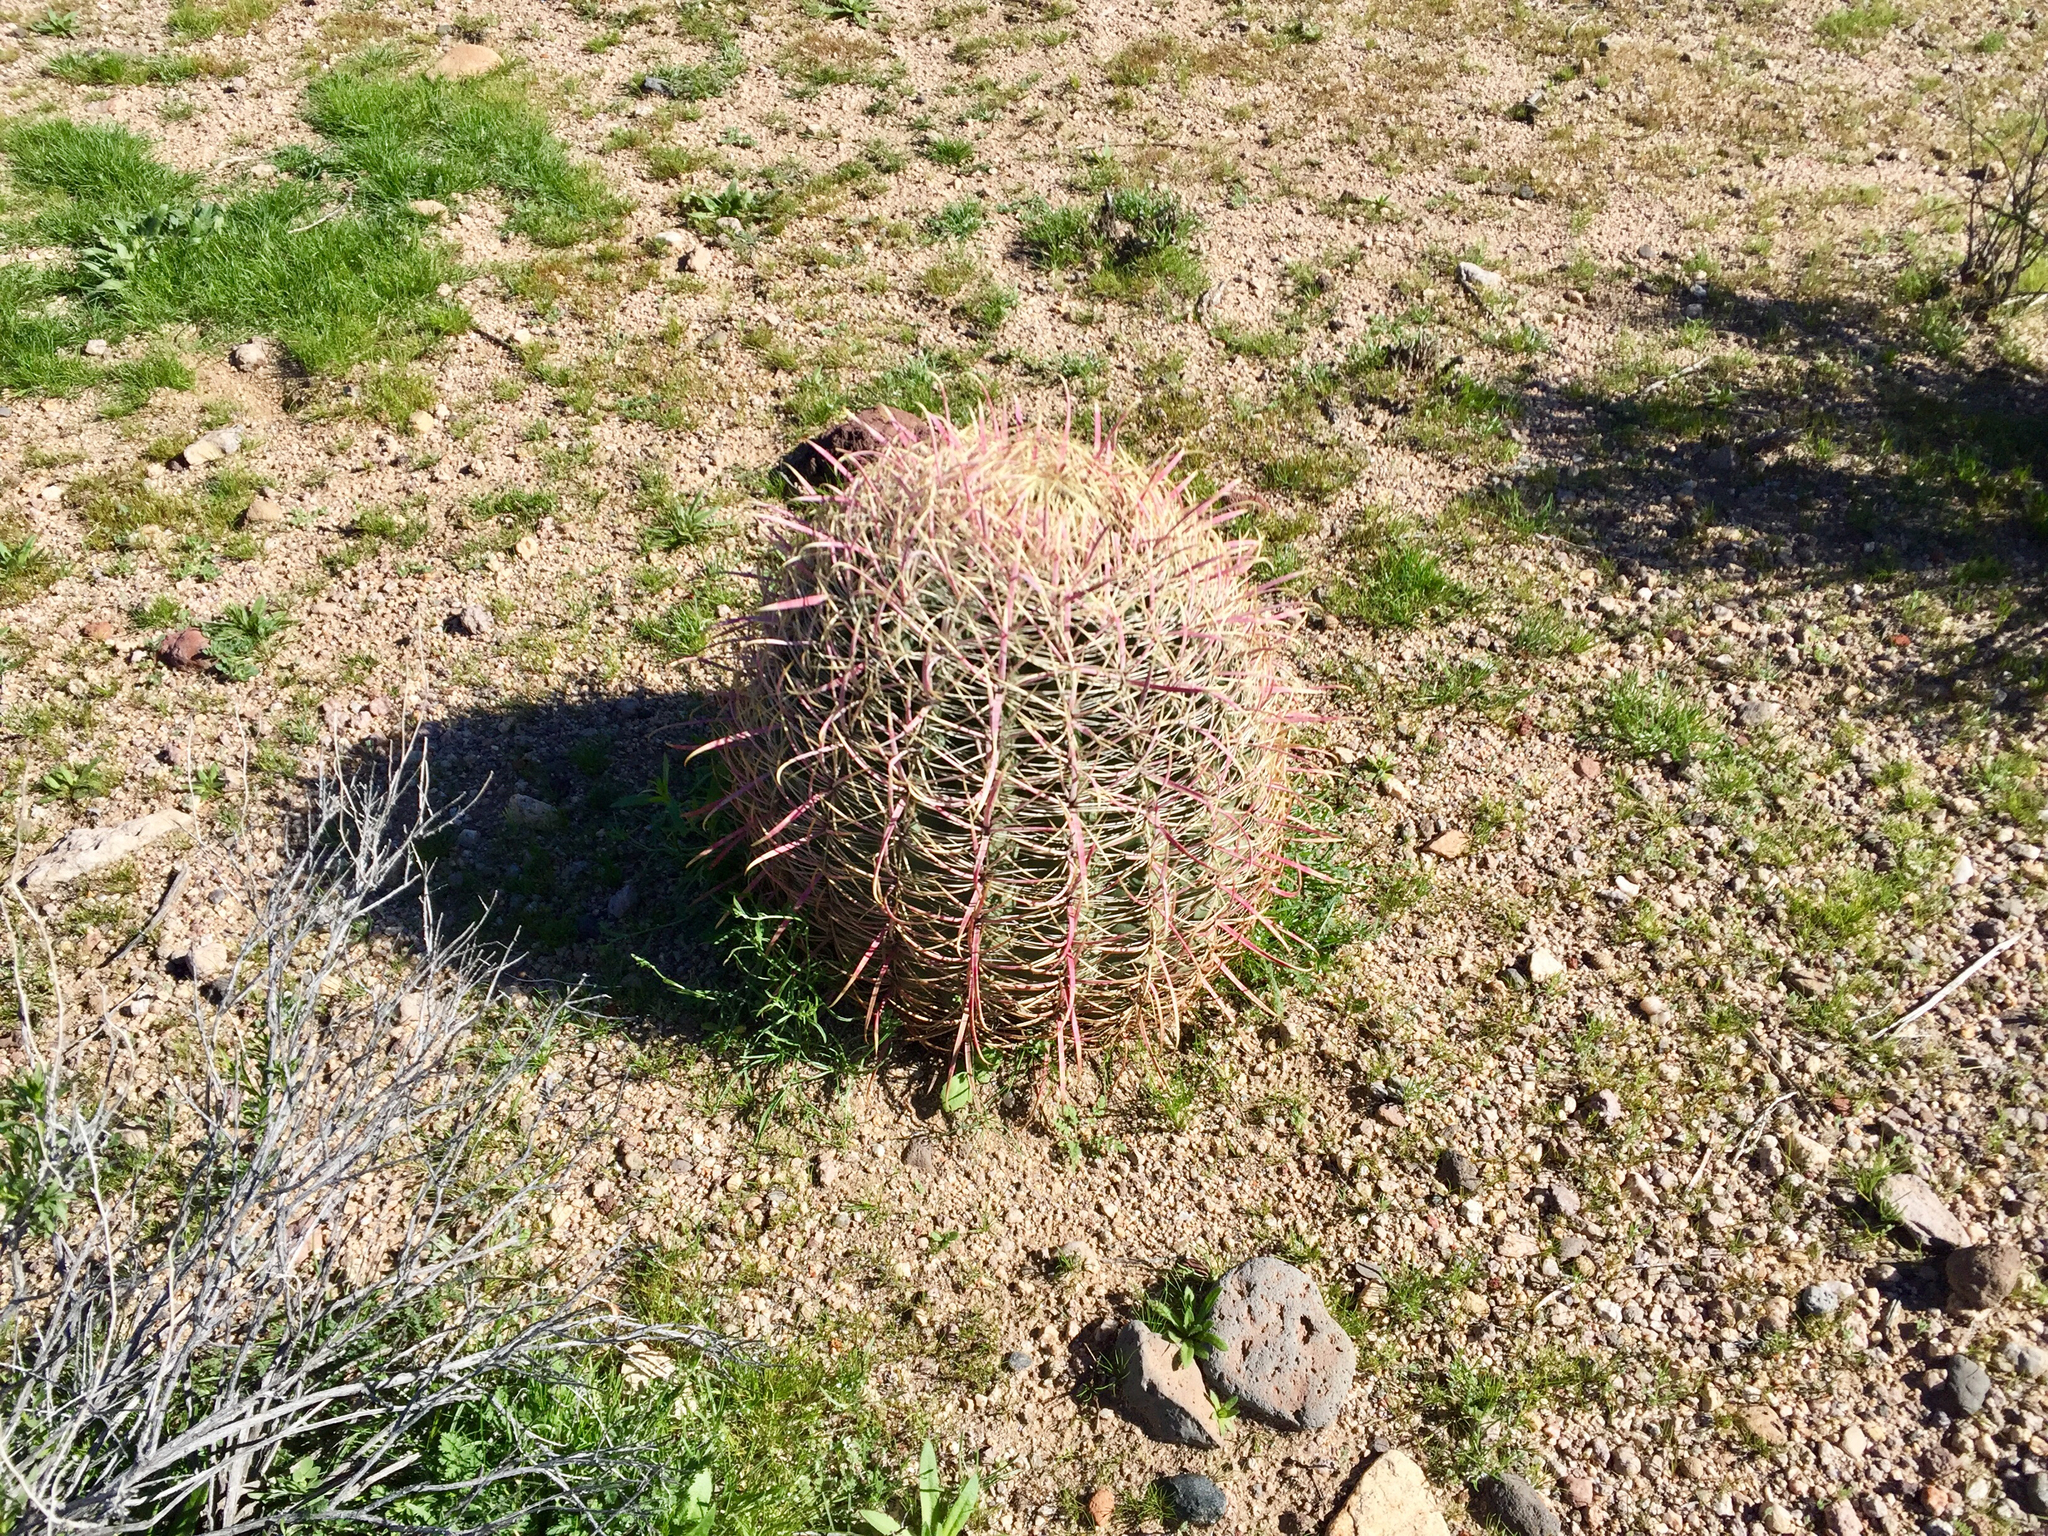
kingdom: Plantae
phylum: Tracheophyta
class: Magnoliopsida
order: Caryophyllales
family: Cactaceae
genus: Ferocactus
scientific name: Ferocactus cylindraceus
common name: California barrel cactus
